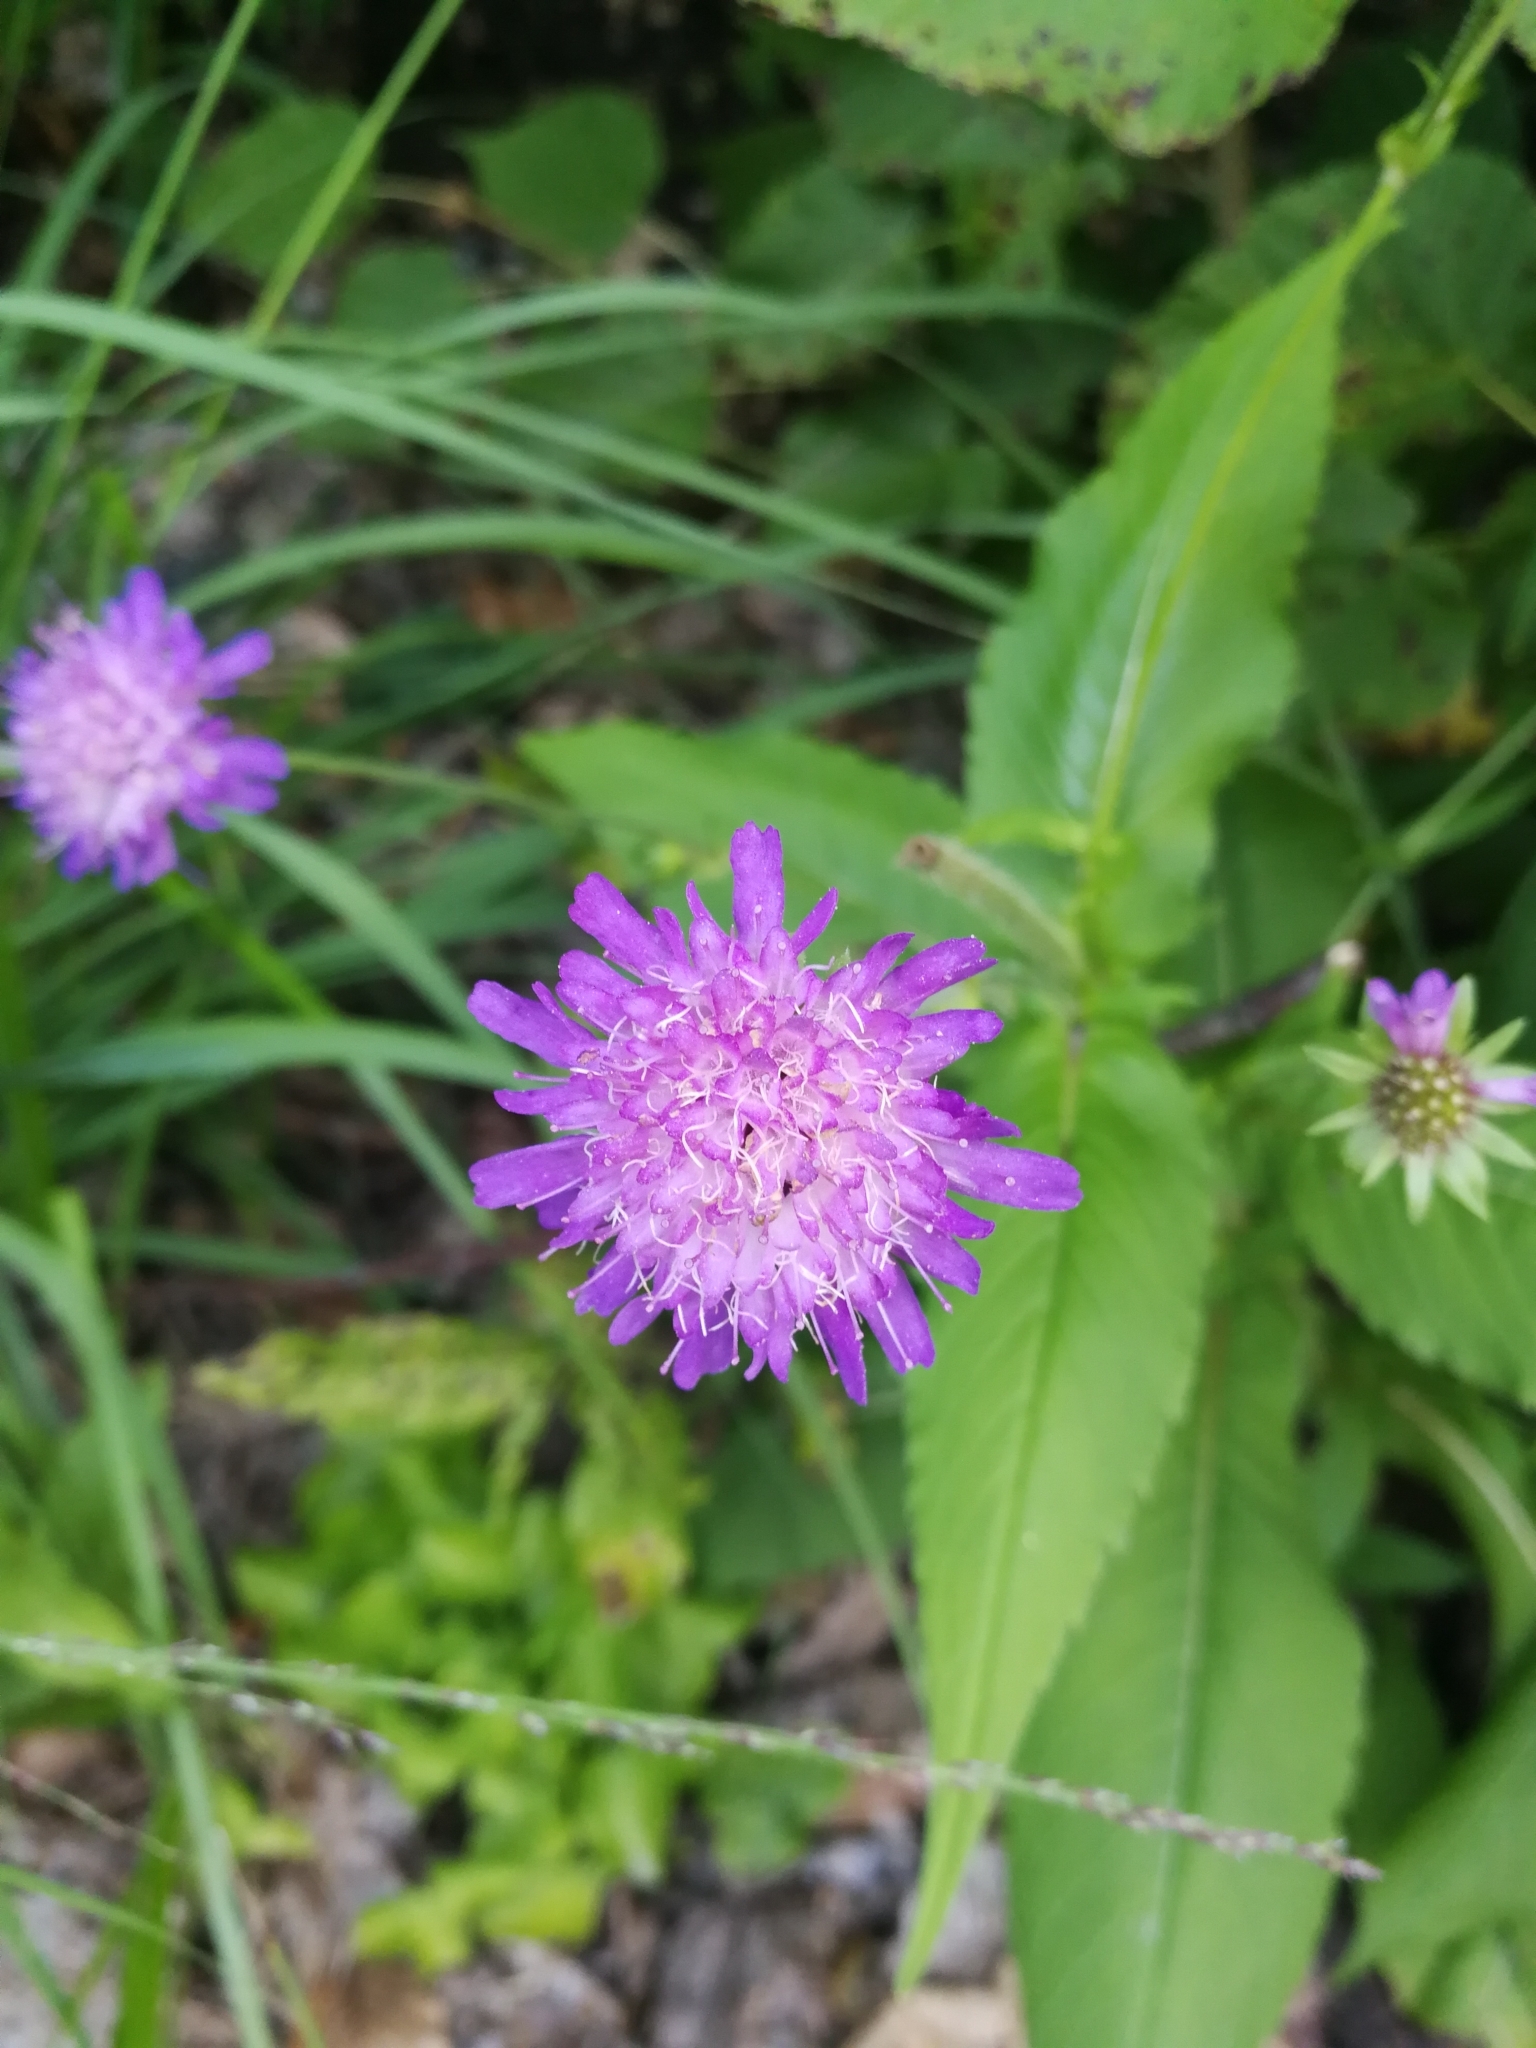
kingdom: Plantae
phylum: Tracheophyta
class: Magnoliopsida
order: Dipsacales
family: Caprifoliaceae
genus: Knautia
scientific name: Knautia dipsacifolia
